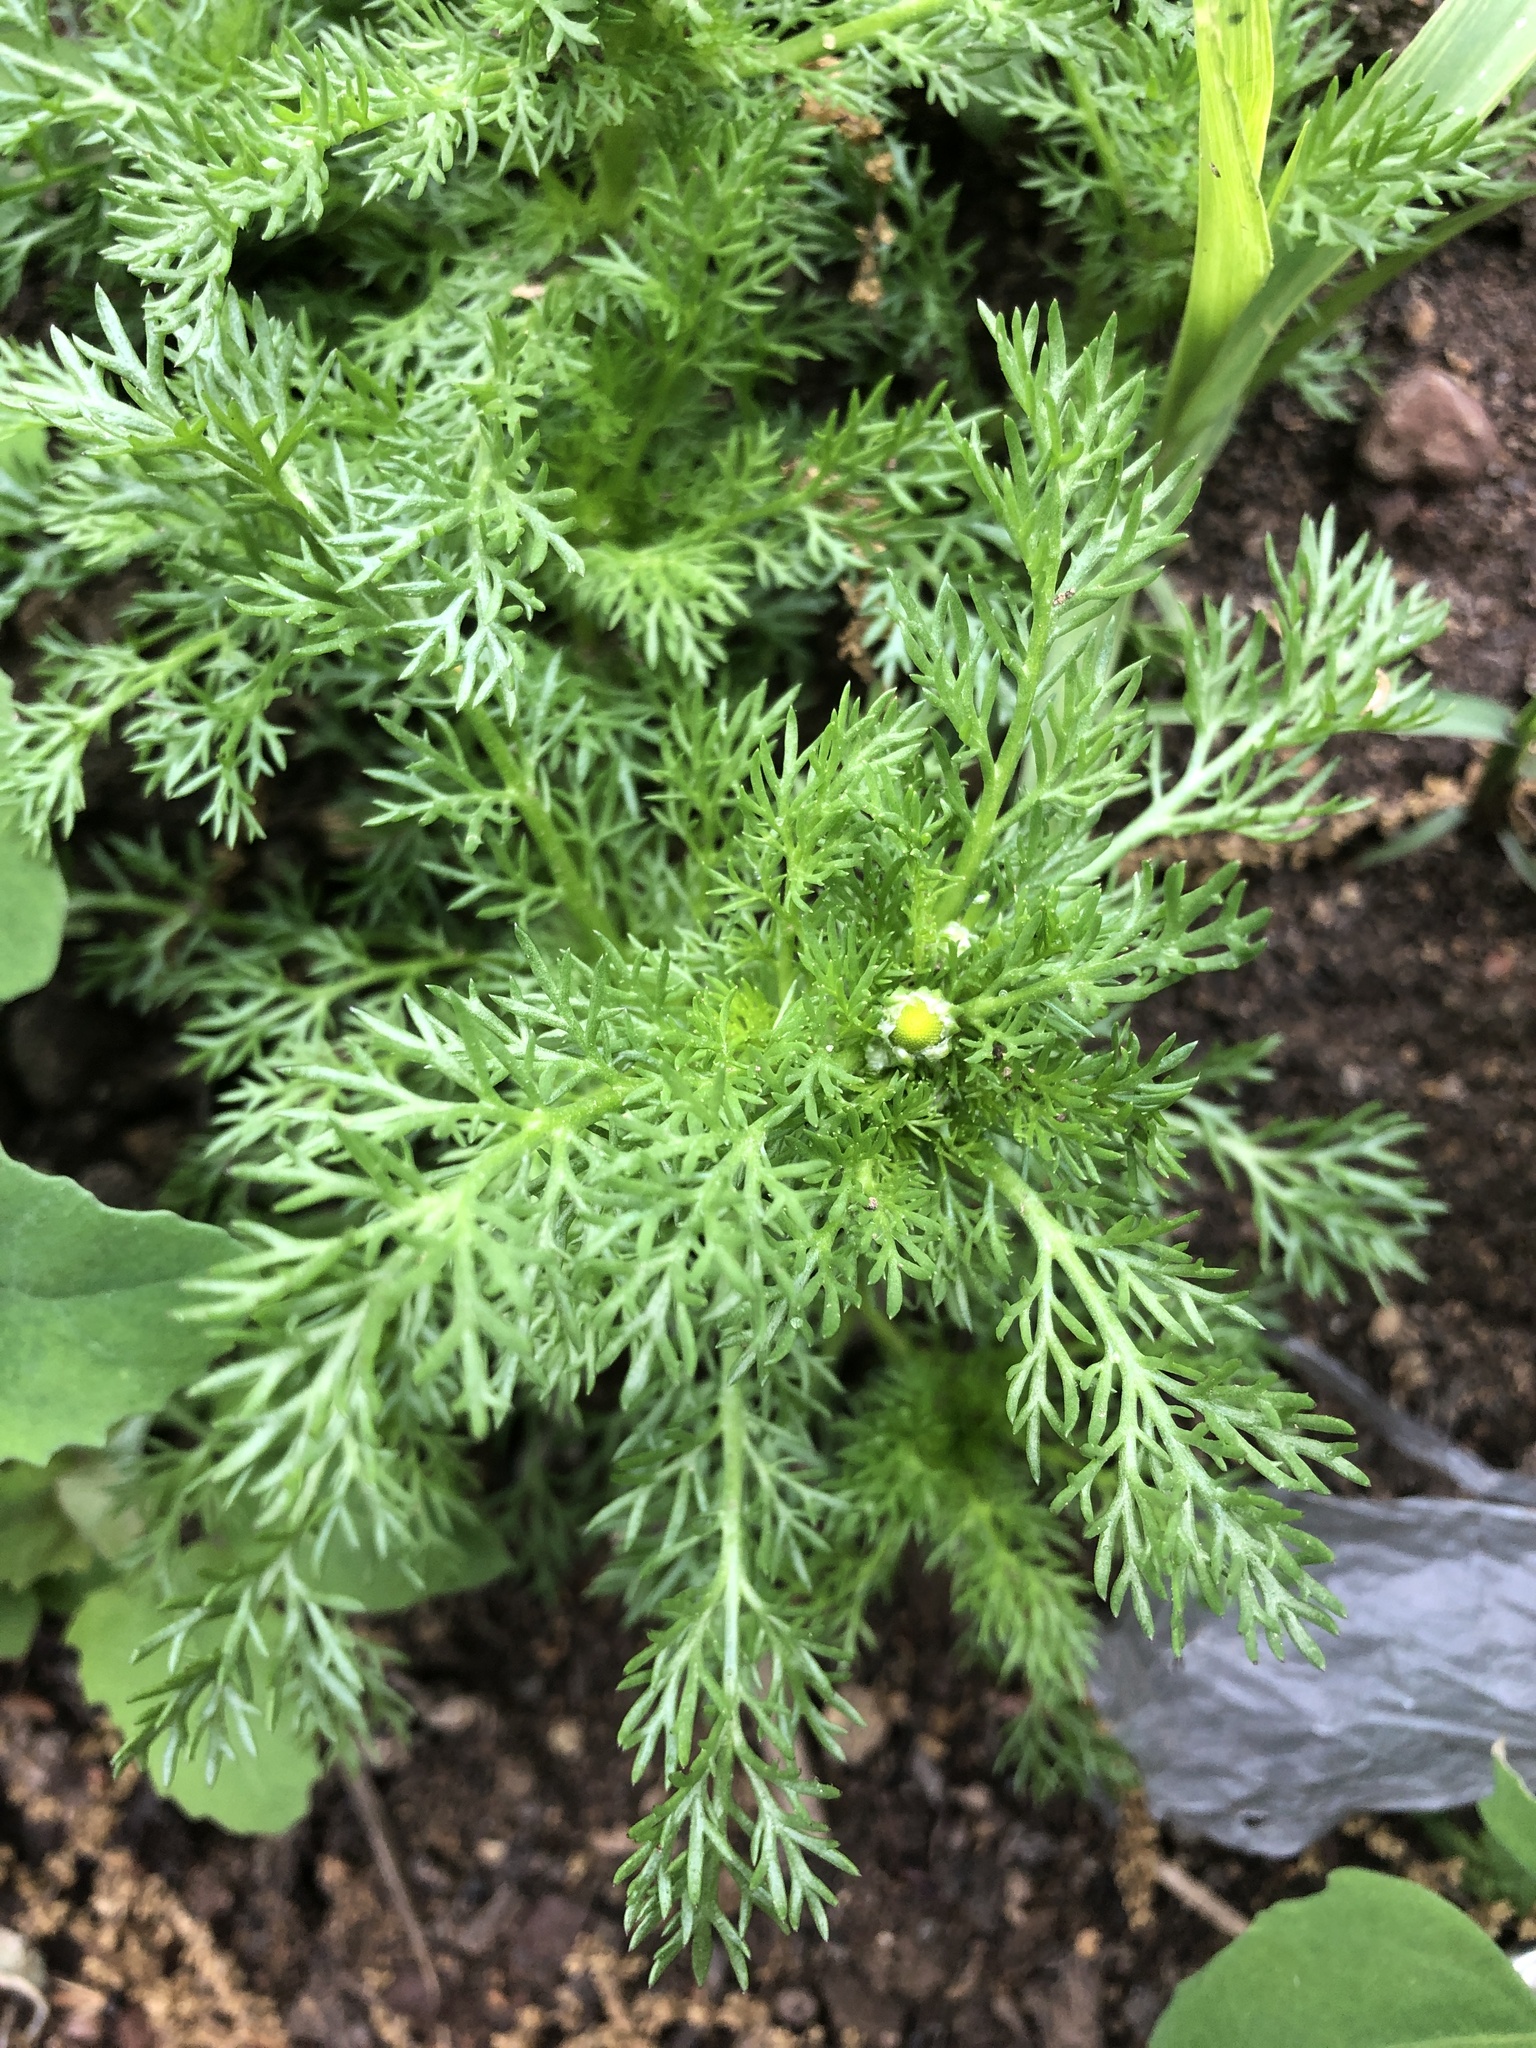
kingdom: Plantae
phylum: Tracheophyta
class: Magnoliopsida
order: Asterales
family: Asteraceae
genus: Matricaria
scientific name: Matricaria discoidea
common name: Disc mayweed
